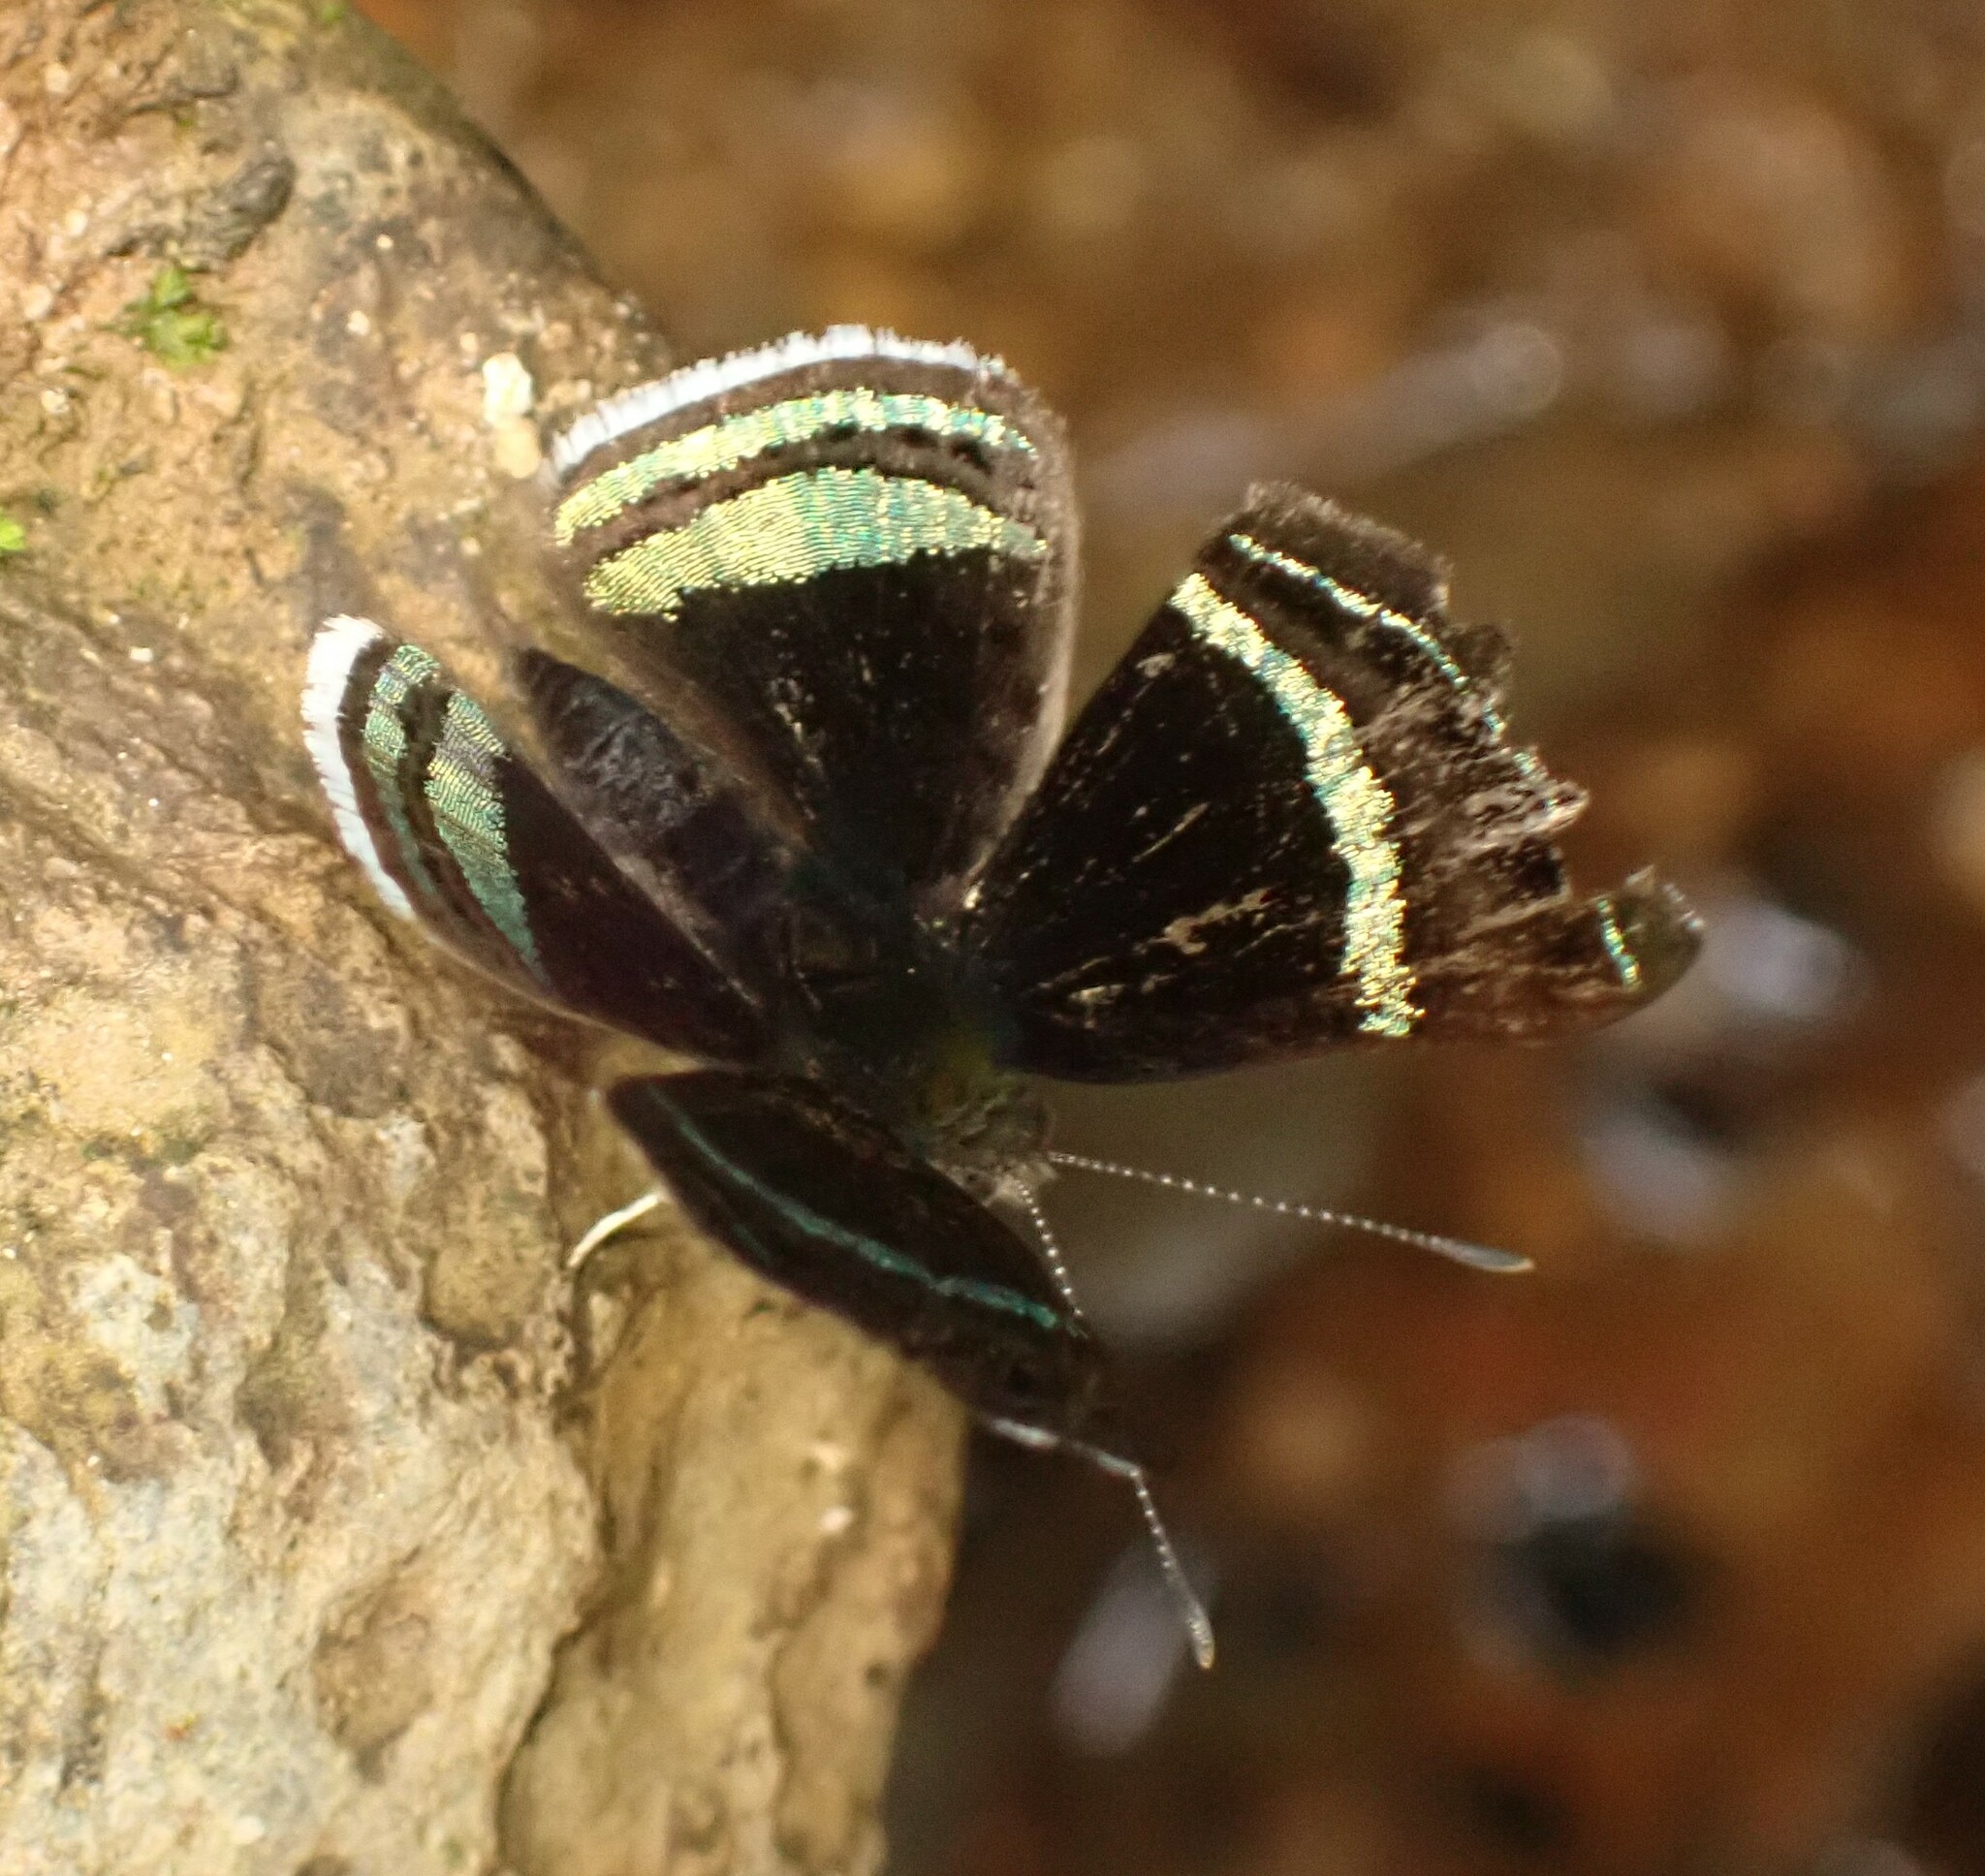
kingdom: Animalia
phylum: Arthropoda
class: Insecta
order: Lepidoptera
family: Riodinidae
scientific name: Riodinidae
